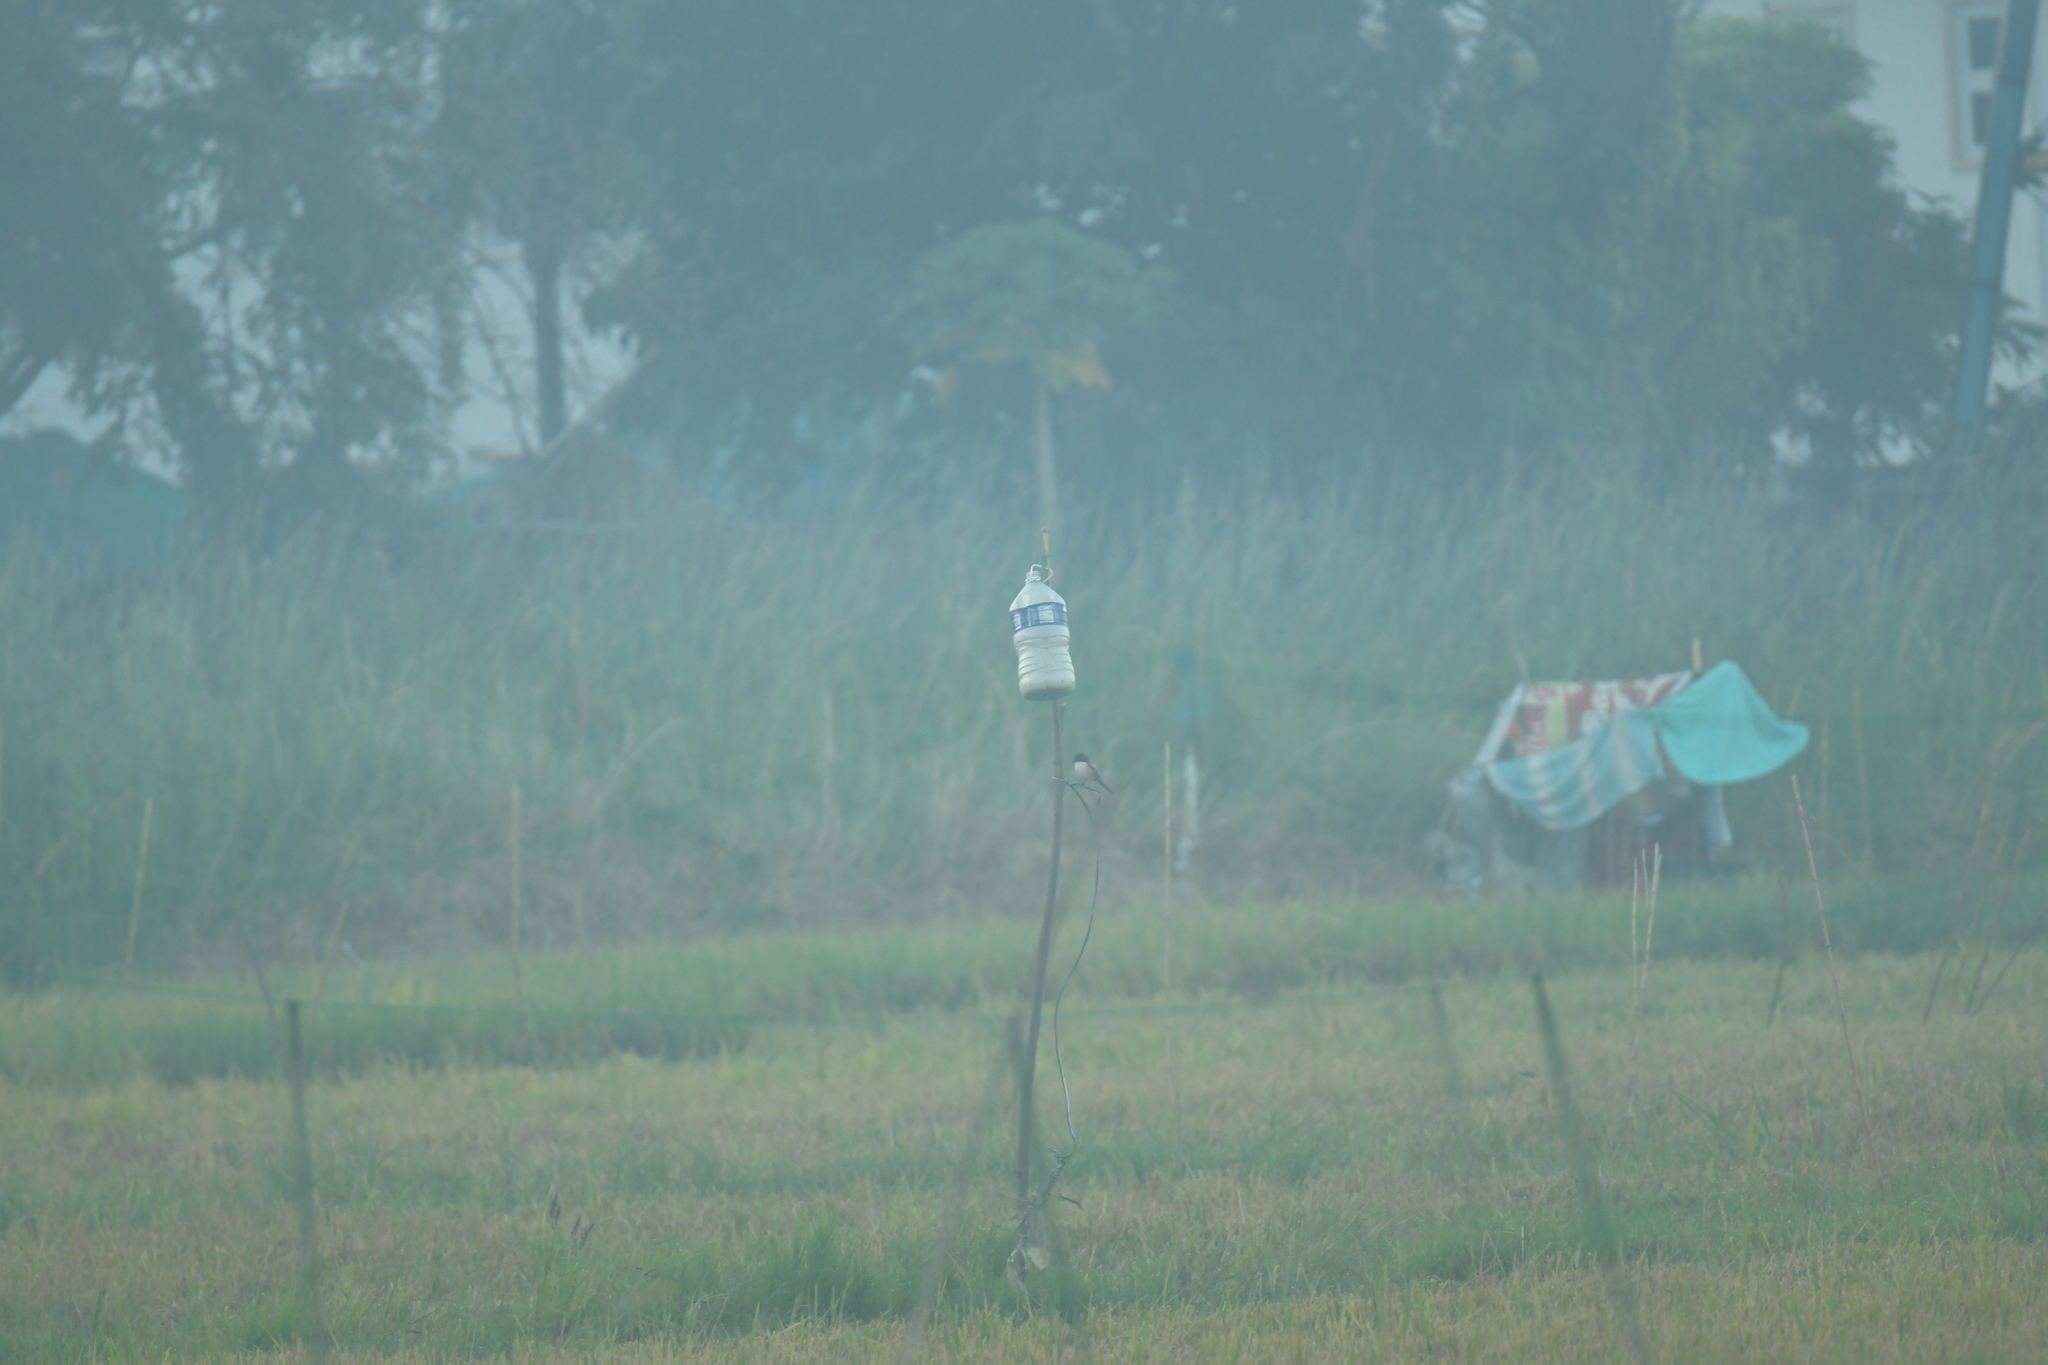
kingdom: Animalia
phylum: Chordata
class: Aves
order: Passeriformes
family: Laniidae
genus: Lanius
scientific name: Lanius schach
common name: Long-tailed shrike
